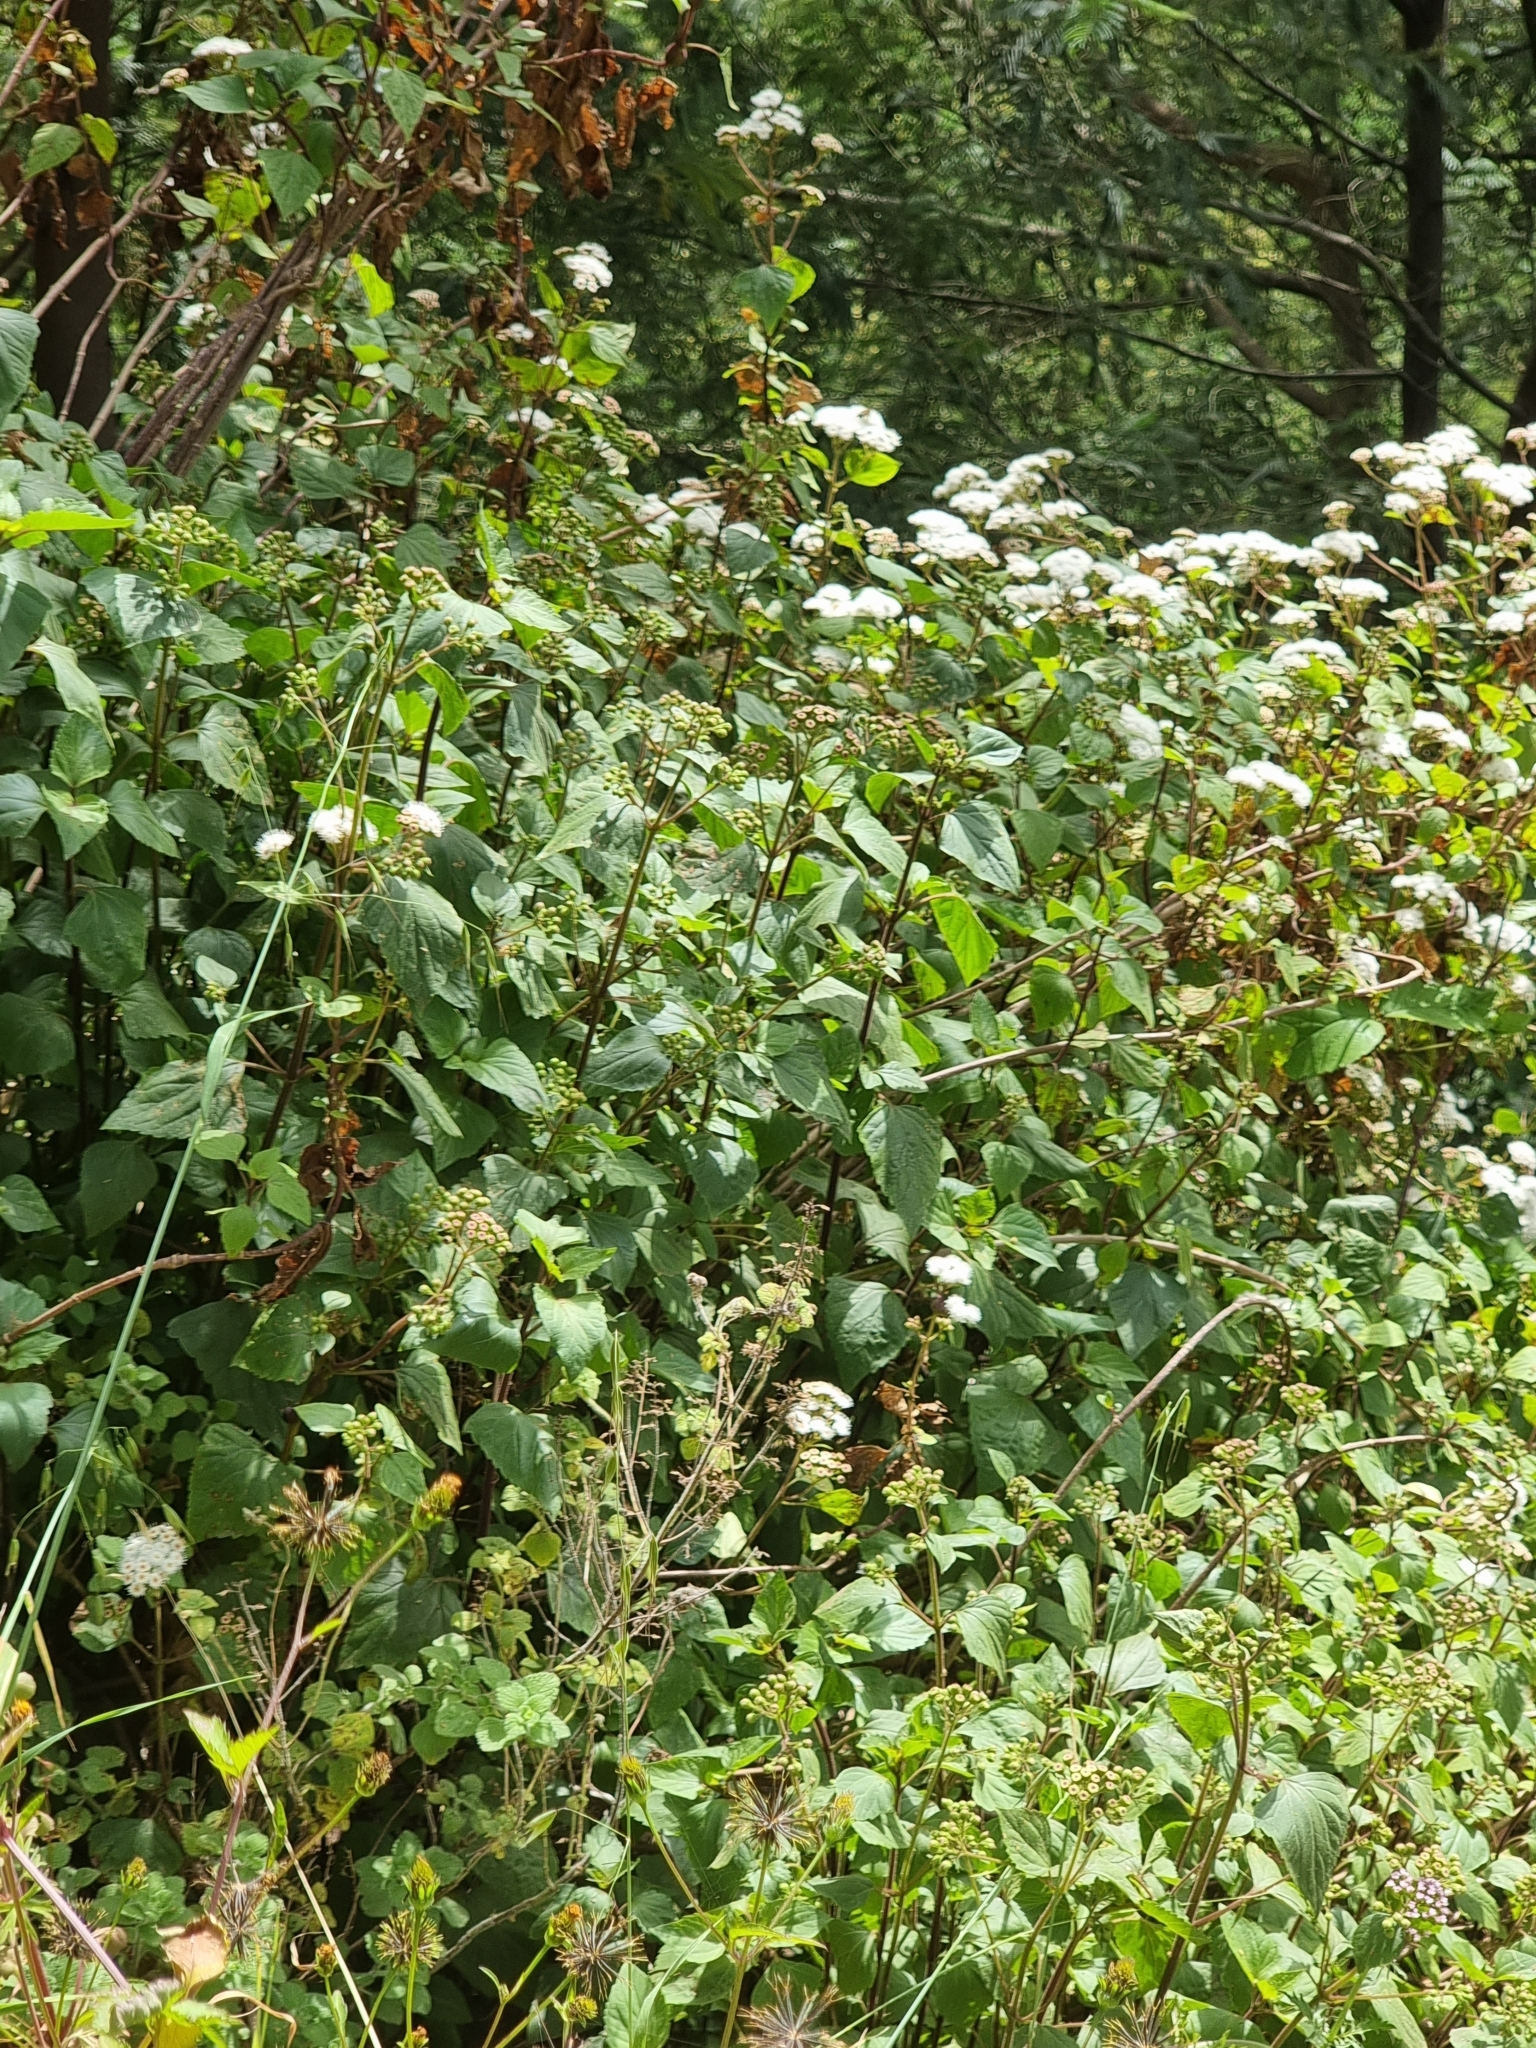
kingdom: Plantae
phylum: Tracheophyta
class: Magnoliopsida
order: Asterales
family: Asteraceae
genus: Ageratina
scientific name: Ageratina adenophora
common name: Sticky snakeroot
